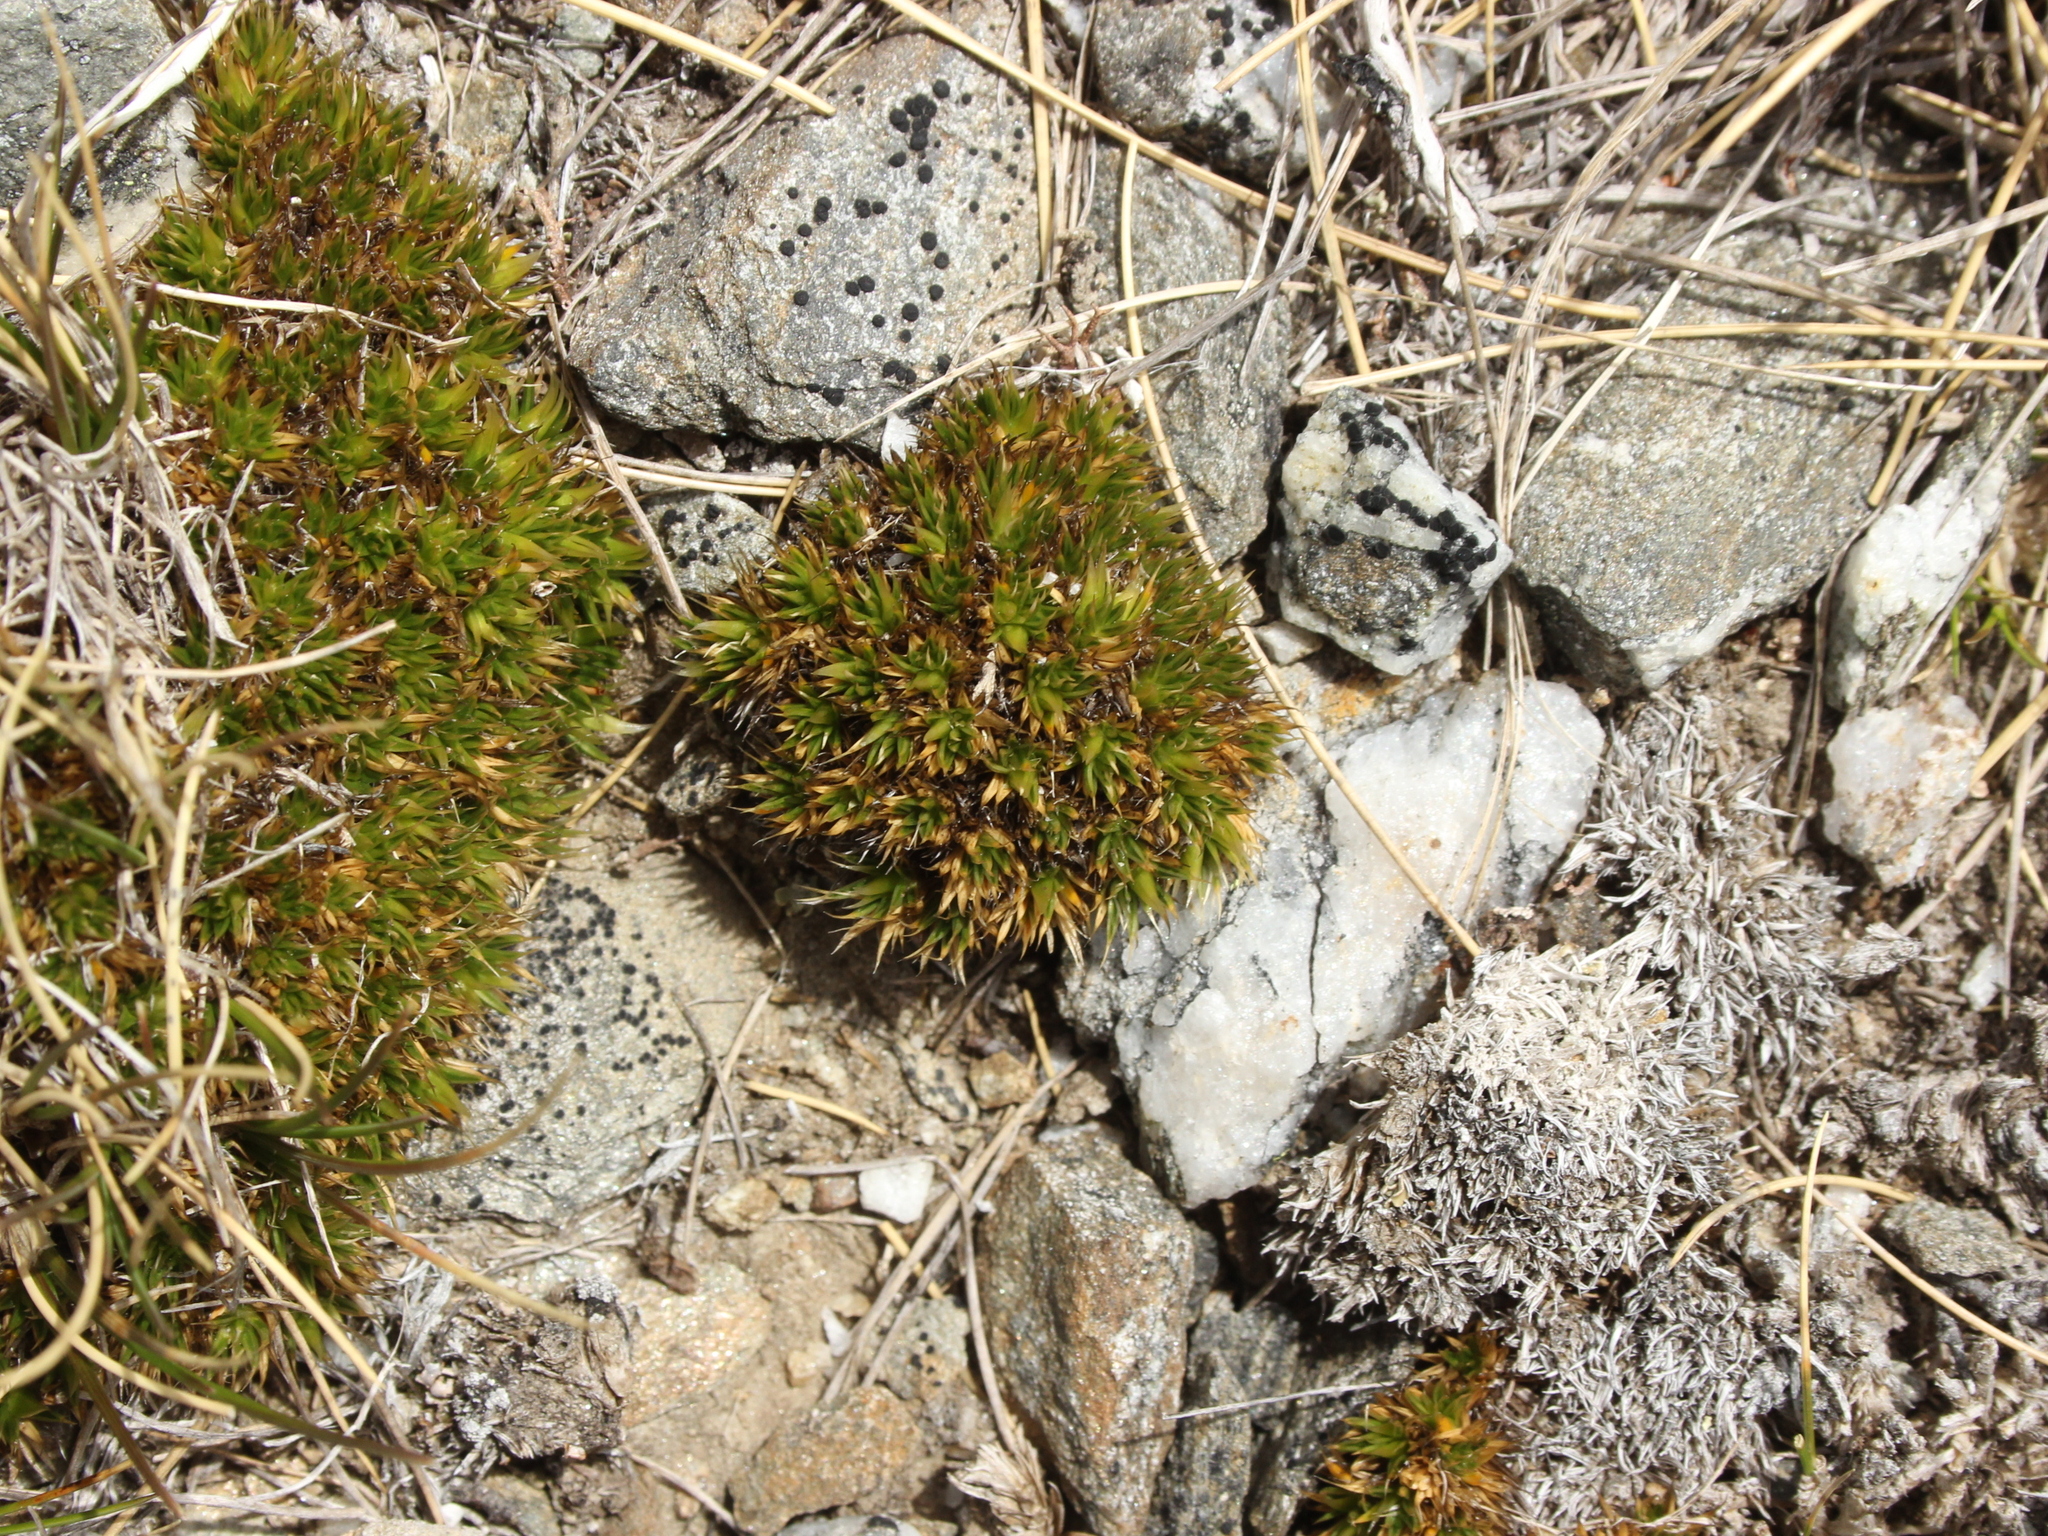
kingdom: Plantae
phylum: Tracheophyta
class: Magnoliopsida
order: Caryophyllales
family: Caryophyllaceae
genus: Colobanthus
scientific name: Colobanthus buchananii
